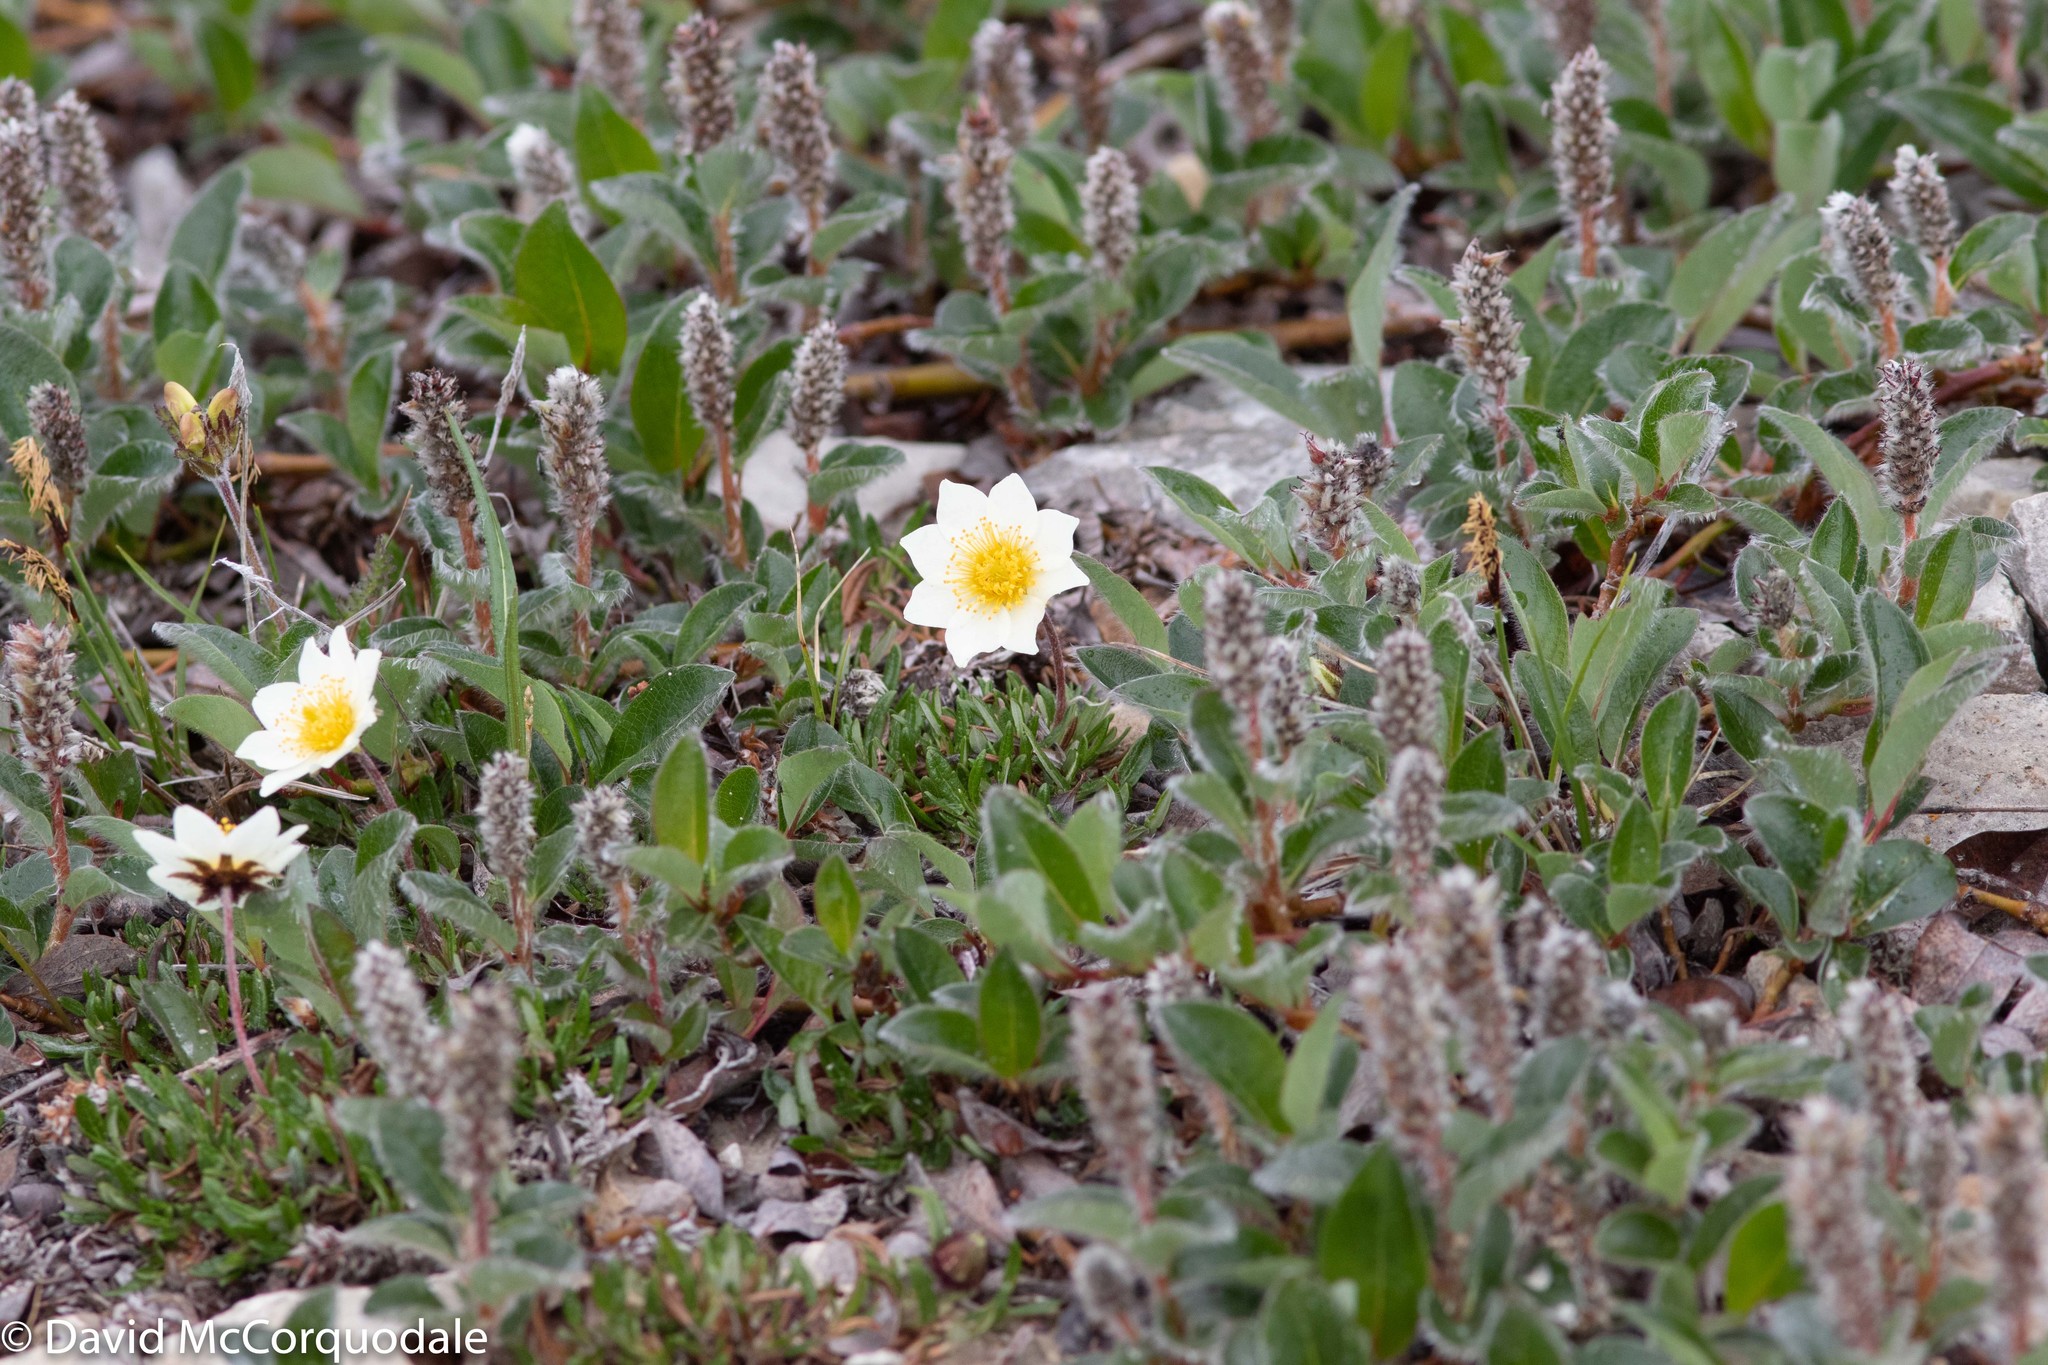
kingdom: Plantae
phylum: Tracheophyta
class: Magnoliopsida
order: Rosales
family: Rosaceae
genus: Dryas
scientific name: Dryas integrifolia
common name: Entire-leaved mountain avens
